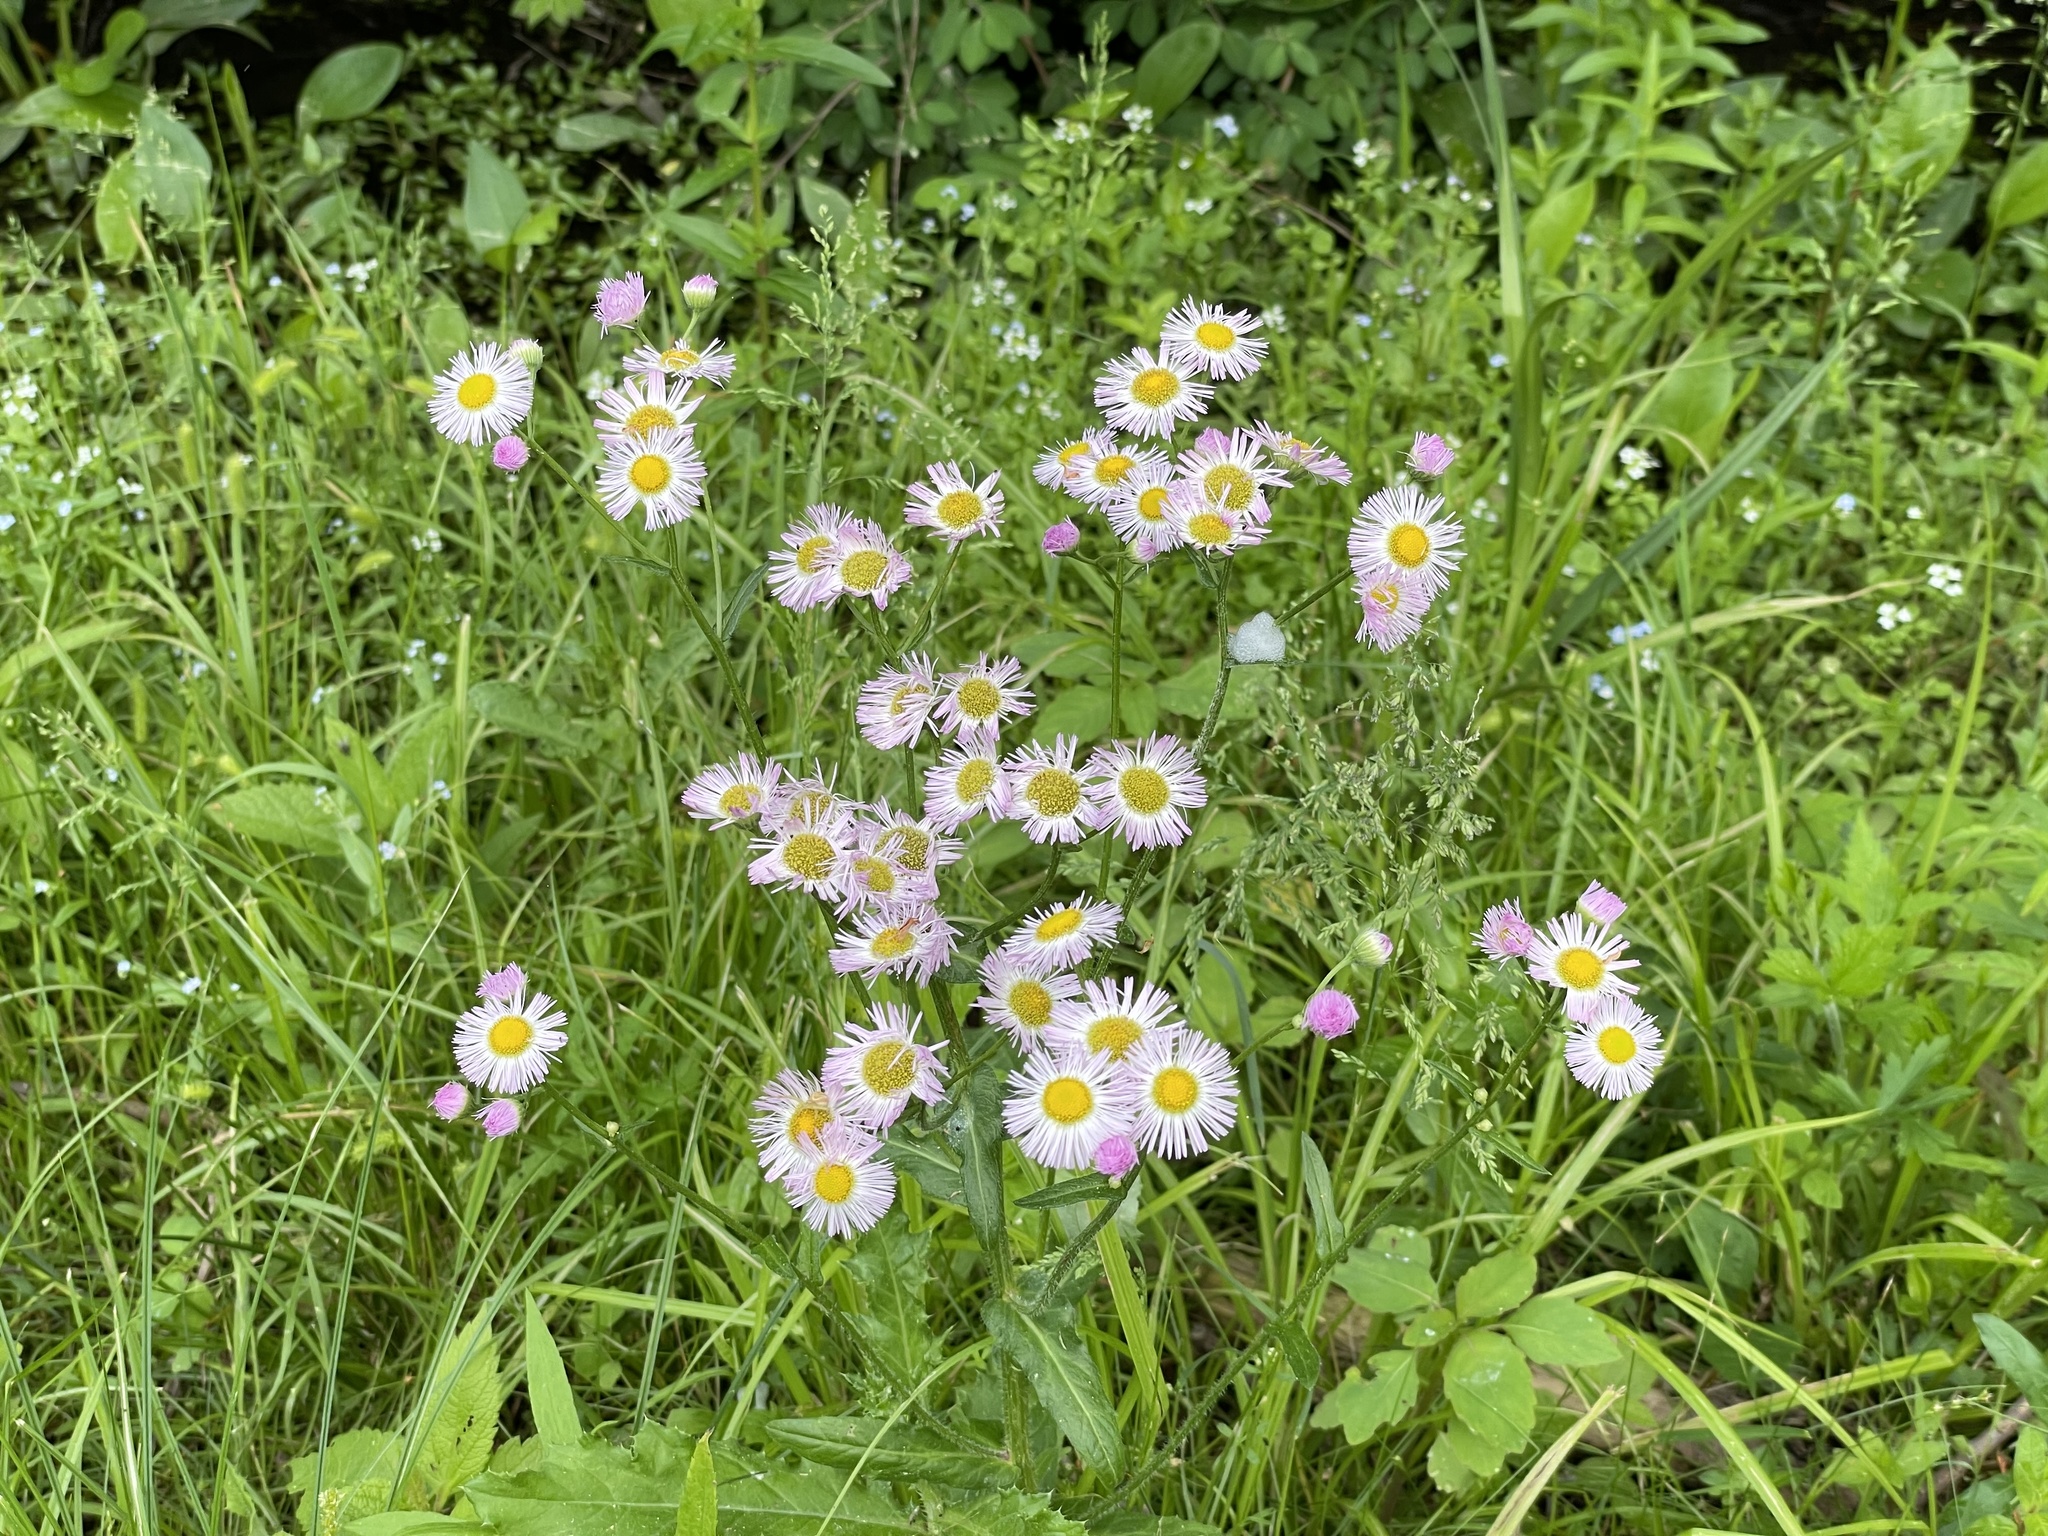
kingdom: Plantae
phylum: Tracheophyta
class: Magnoliopsida
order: Asterales
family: Asteraceae
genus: Erigeron
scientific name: Erigeron philadelphicus
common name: Robin's-plantain
